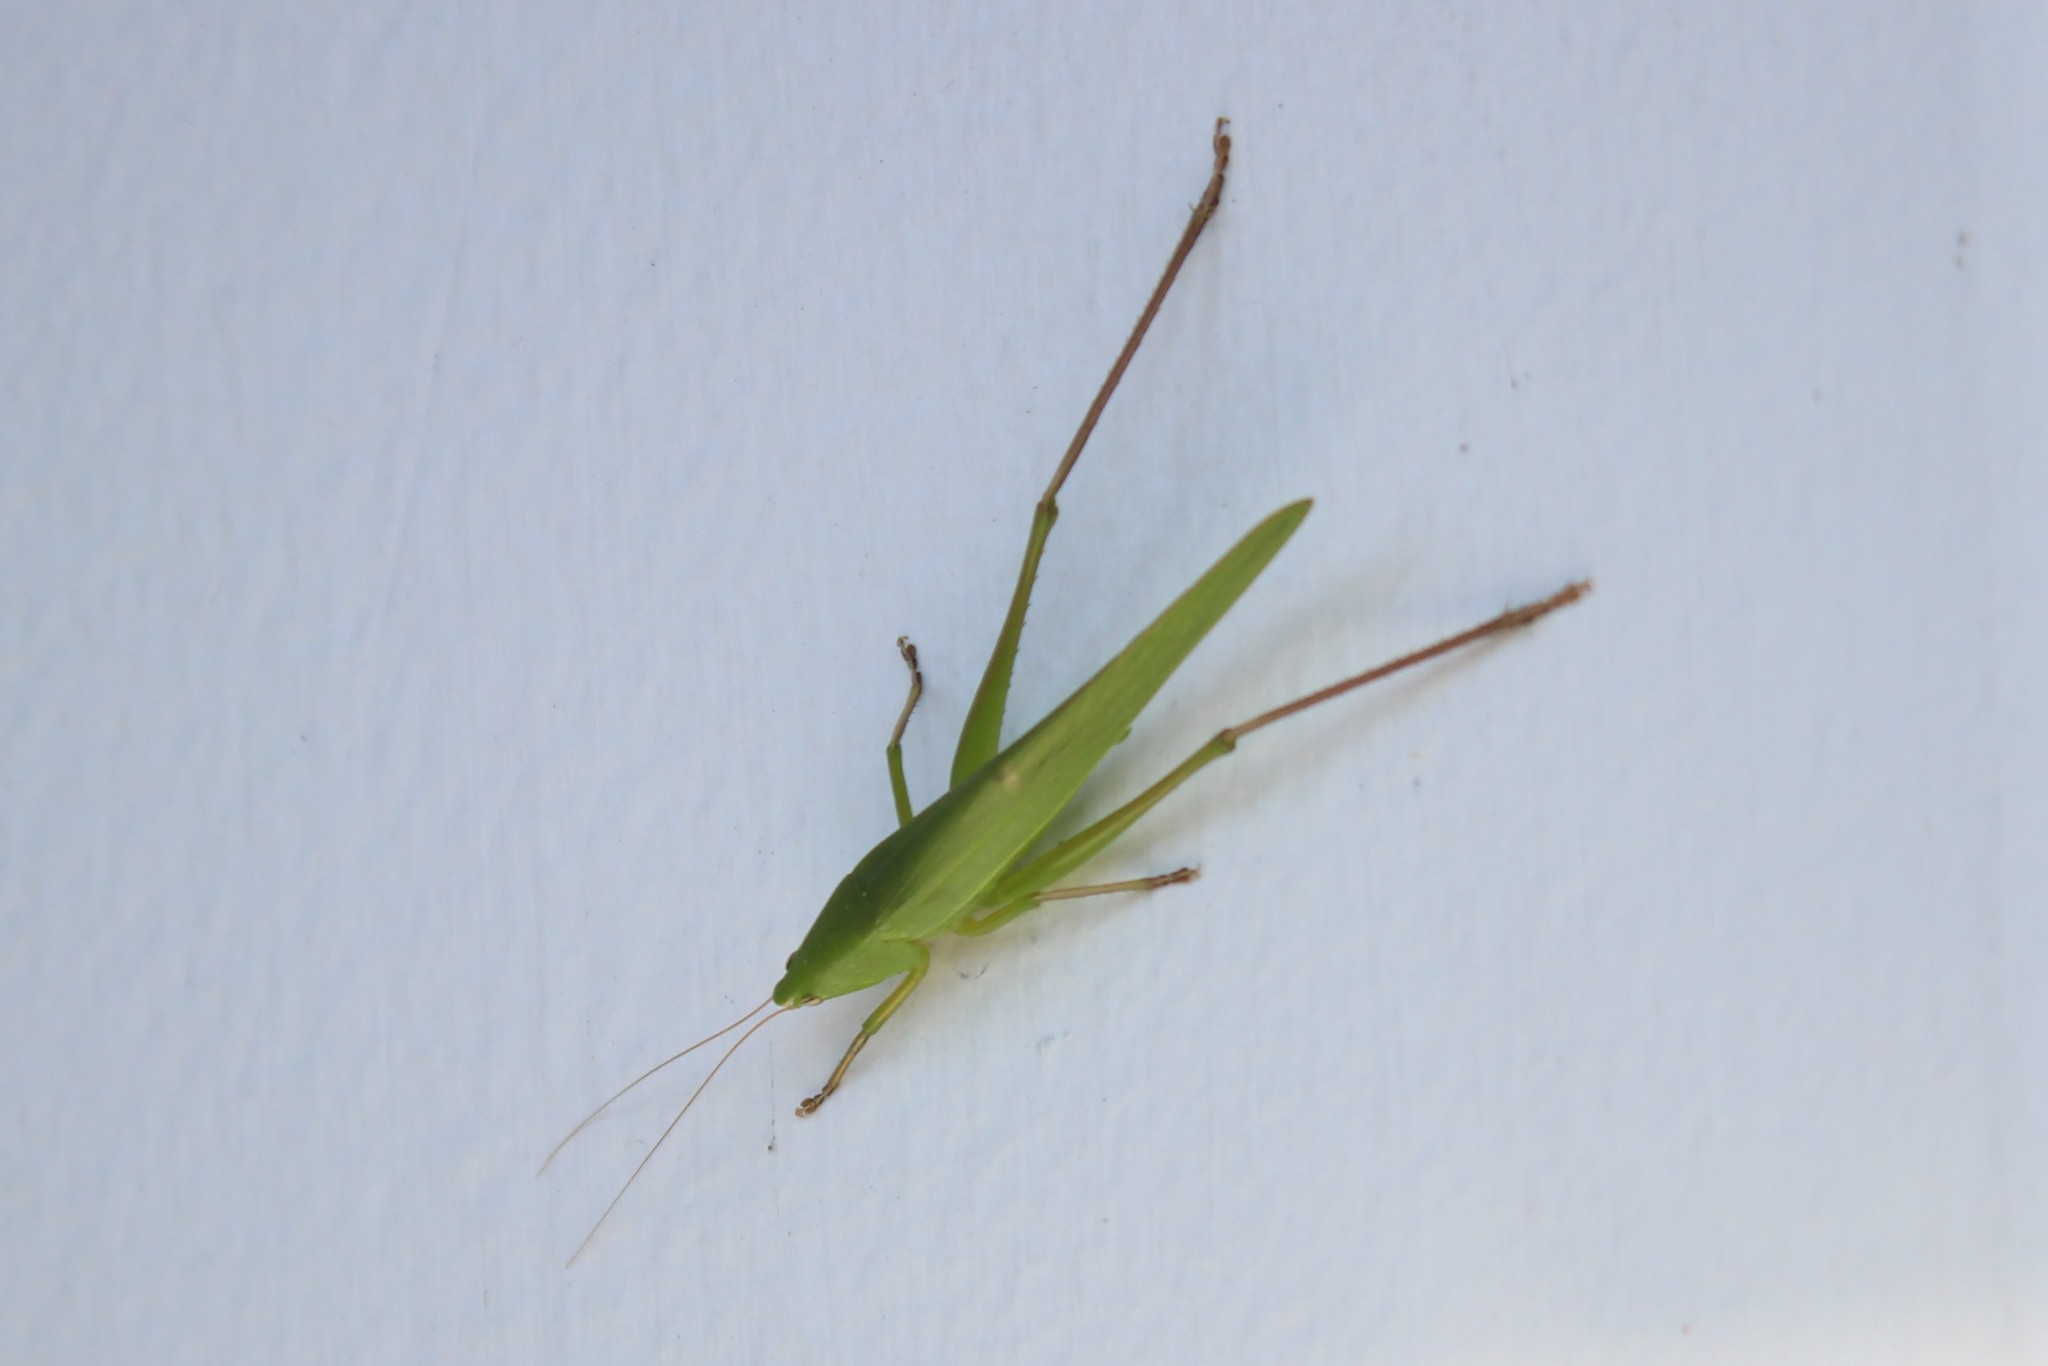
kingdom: Animalia
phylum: Arthropoda
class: Insecta
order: Orthoptera
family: Tettigoniidae
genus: Neoconocephalus
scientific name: Neoconocephalus triops
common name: Broad-tipped conehead
